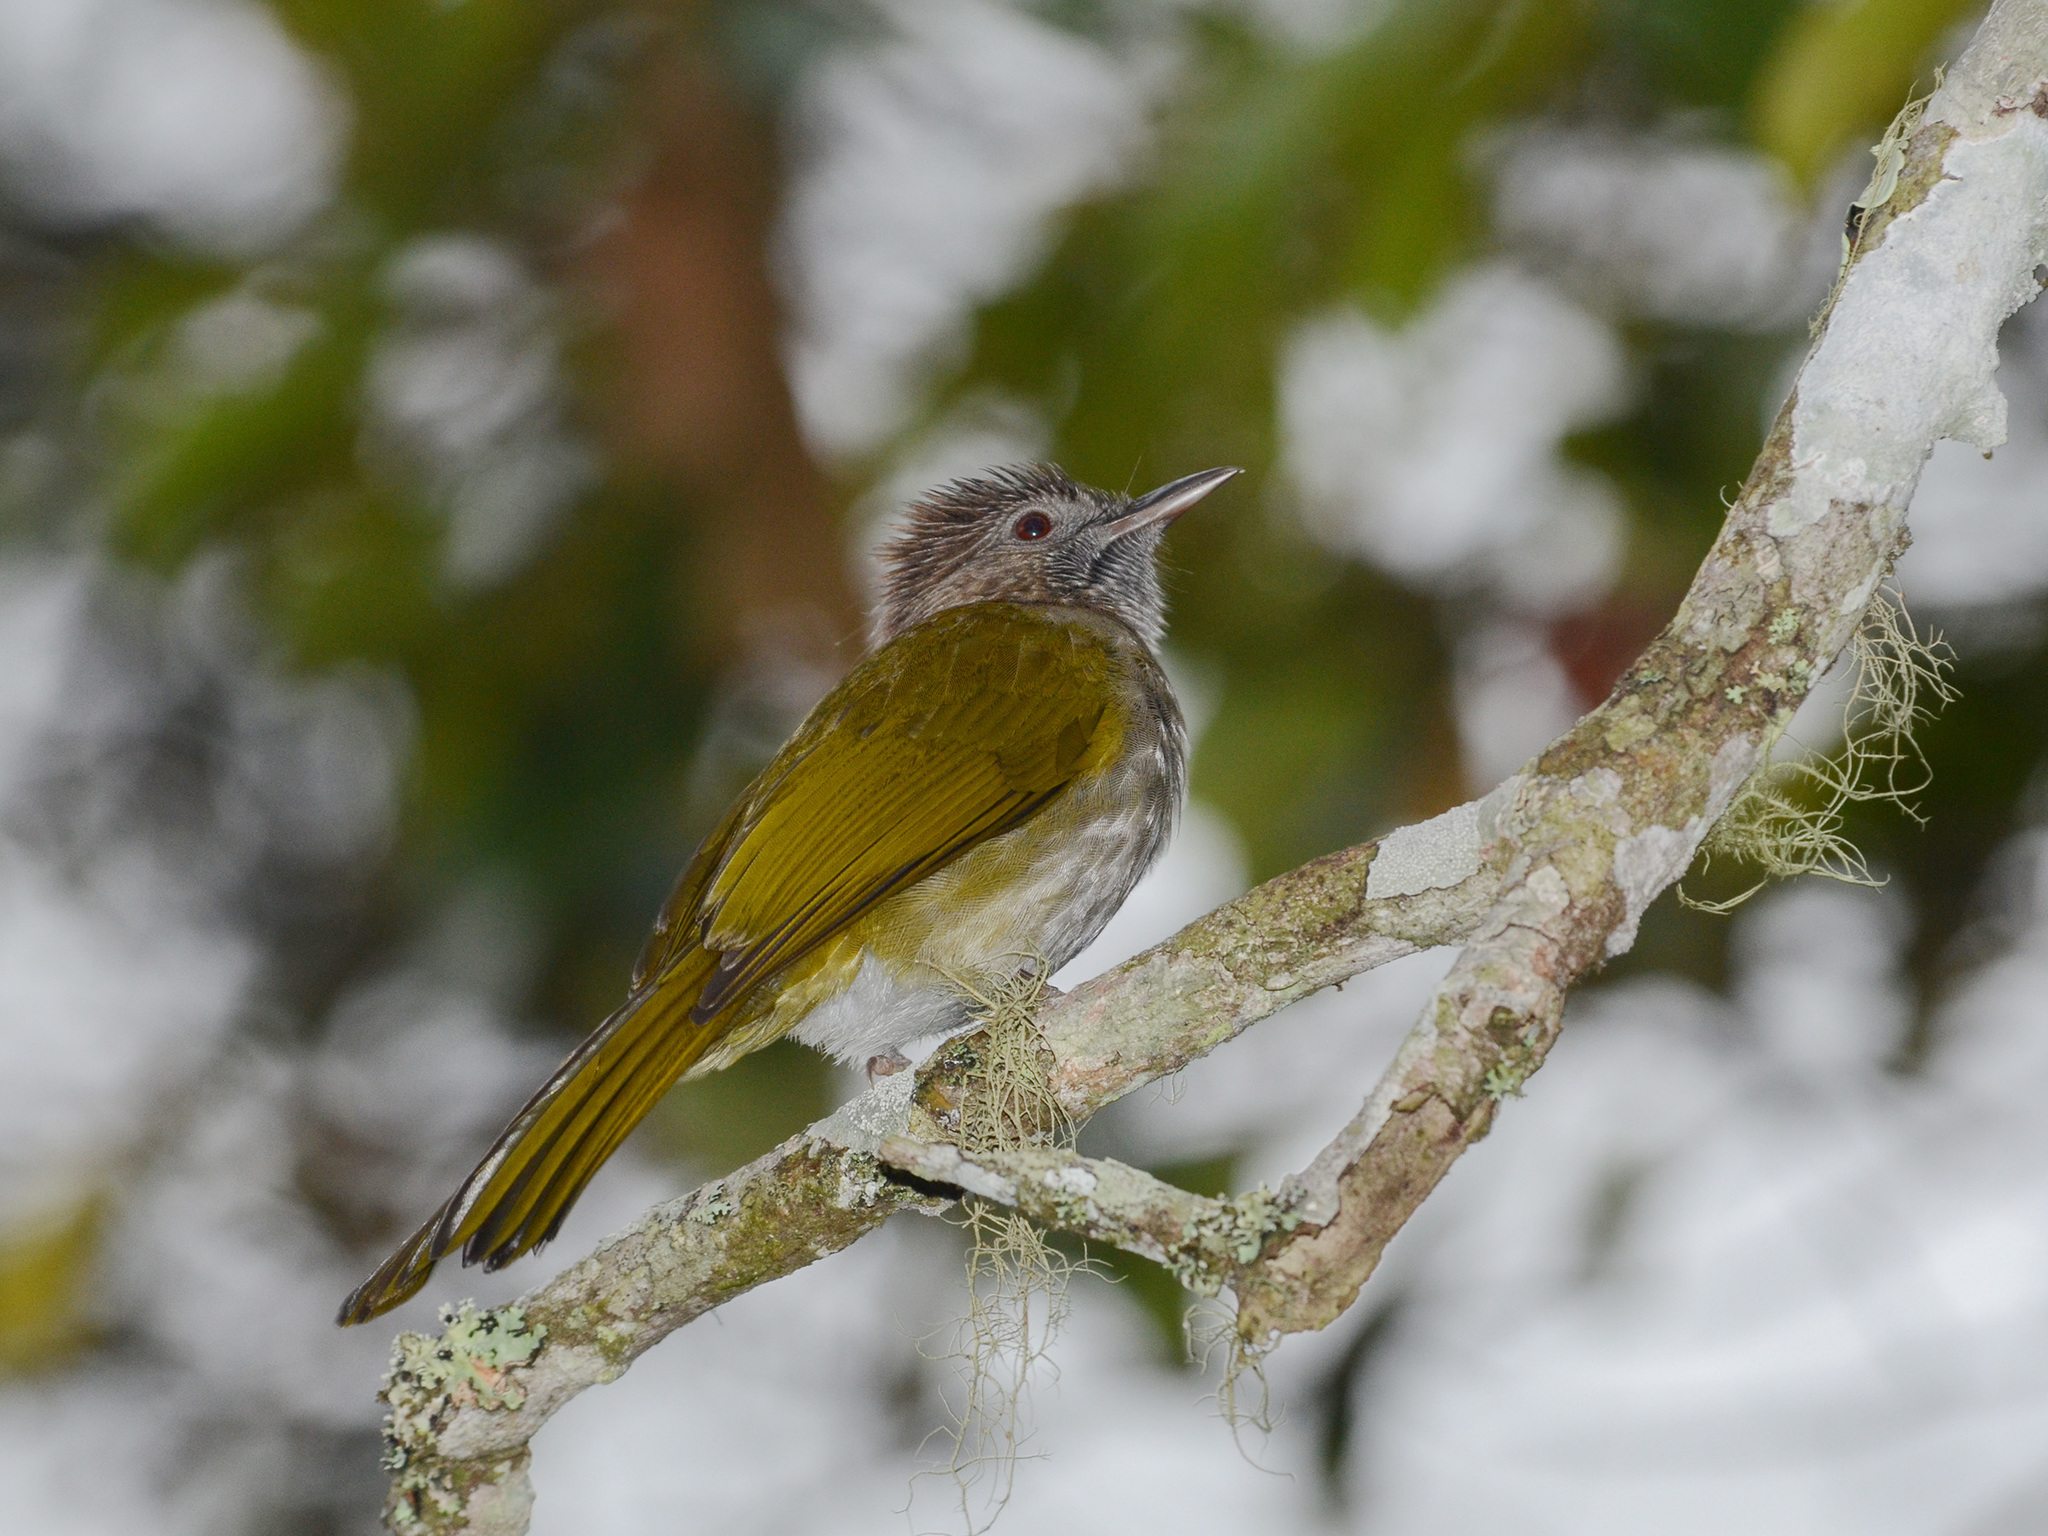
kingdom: Animalia
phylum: Chordata
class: Aves
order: Passeriformes
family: Pycnonotidae
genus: Ixos
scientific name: Ixos mcclellandii
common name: Mountain bulbul
